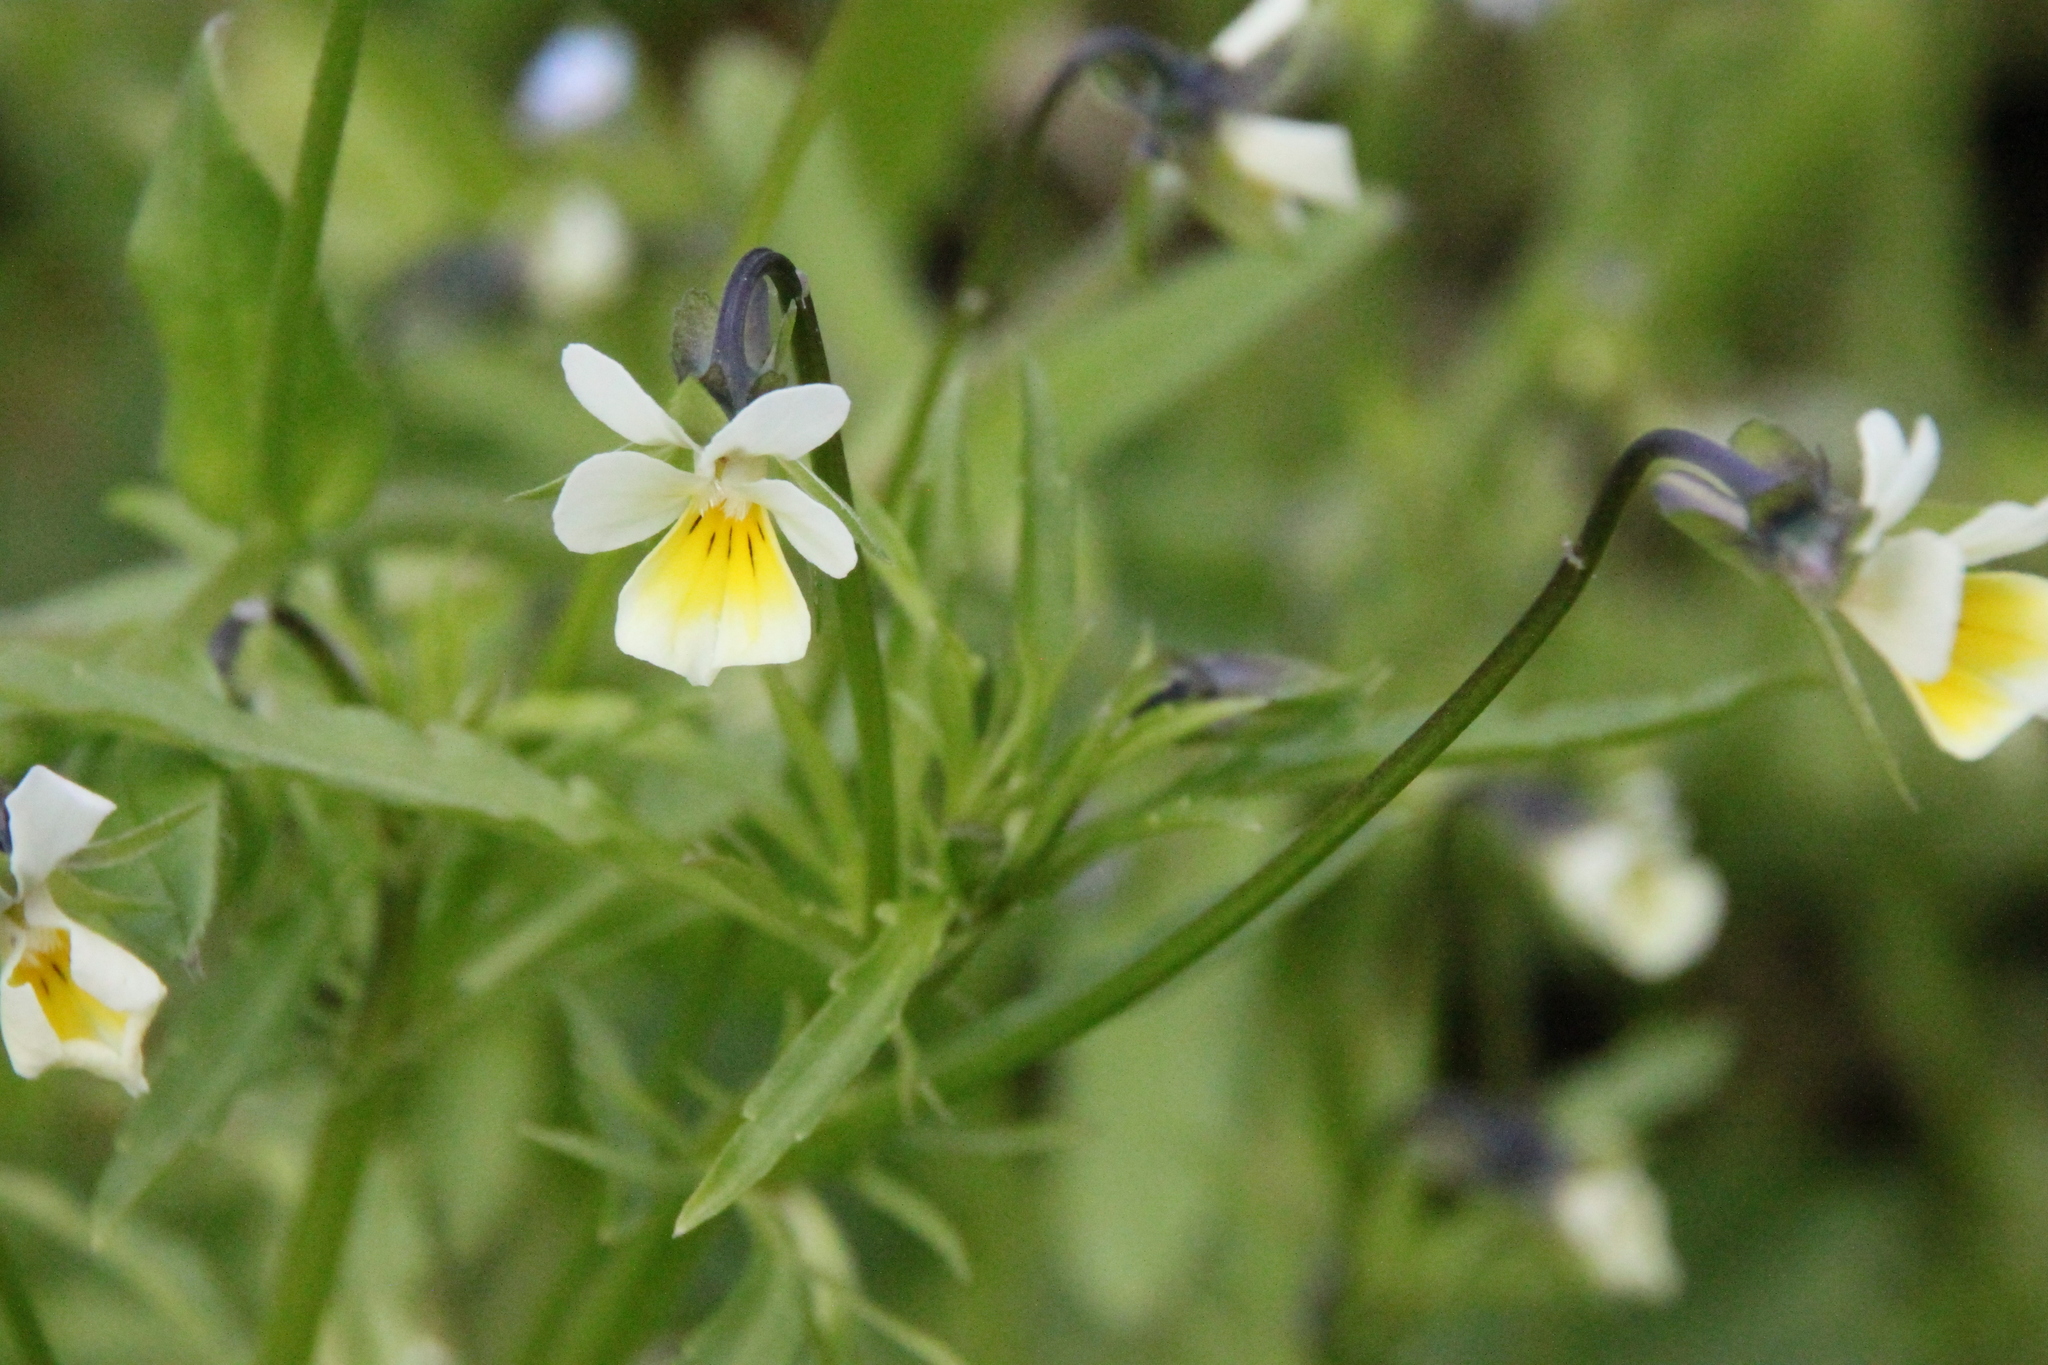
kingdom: Plantae
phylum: Tracheophyta
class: Magnoliopsida
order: Malpighiales
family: Violaceae
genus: Viola
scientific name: Viola arvensis
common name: Field pansy
